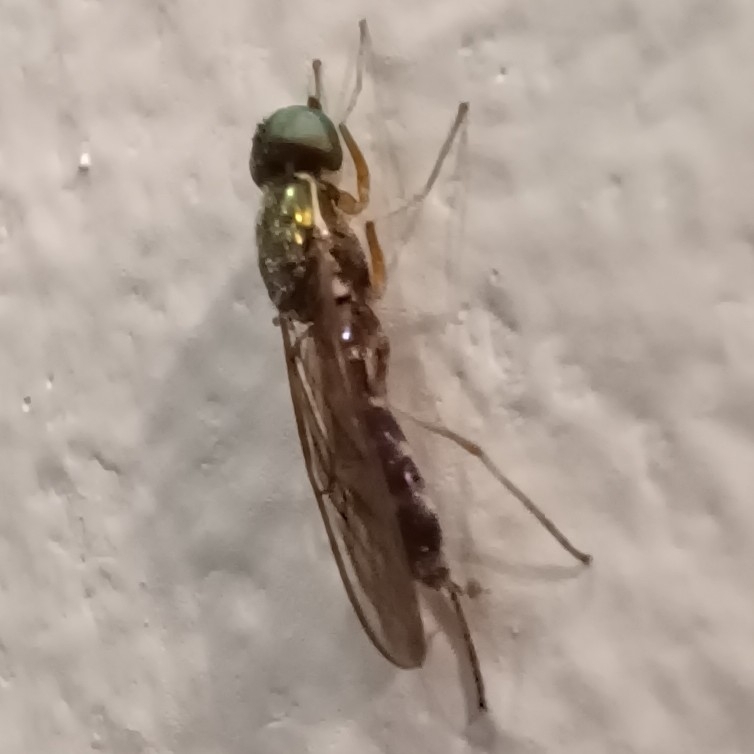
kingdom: Animalia
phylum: Arthropoda
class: Insecta
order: Diptera
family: Stratiomyidae
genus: Sargus
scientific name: Sargus fasciatus
